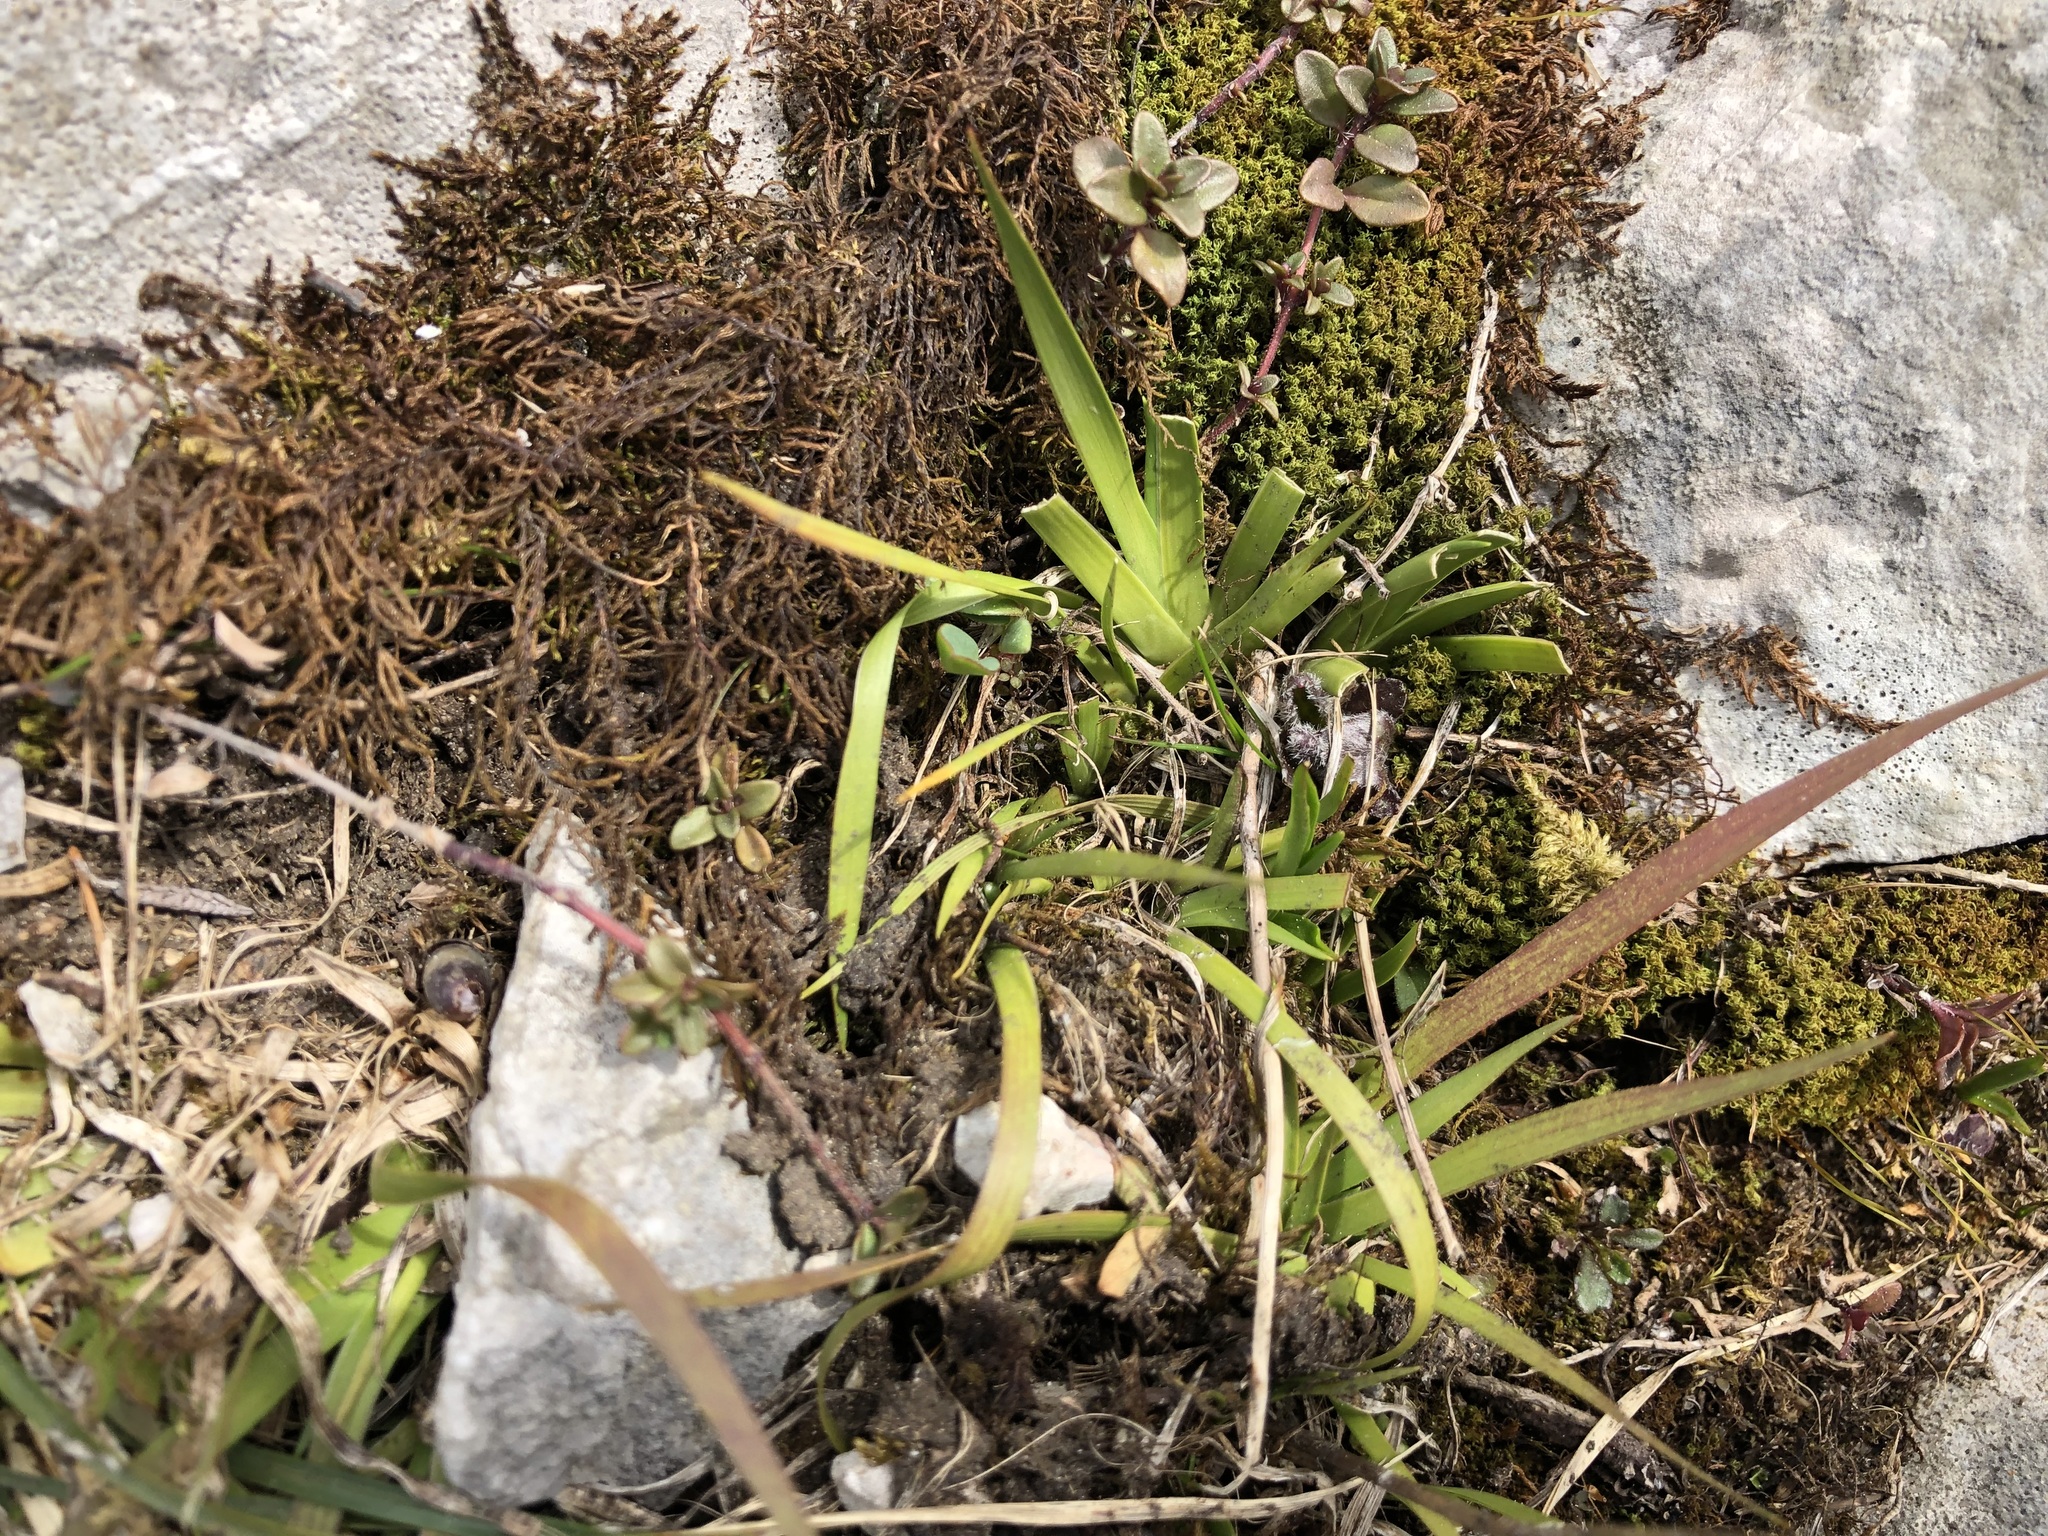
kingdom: Plantae
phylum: Tracheophyta
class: Liliopsida
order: Alismatales
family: Tofieldiaceae
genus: Tofieldia
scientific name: Tofieldia calyculata
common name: German-asphodel
